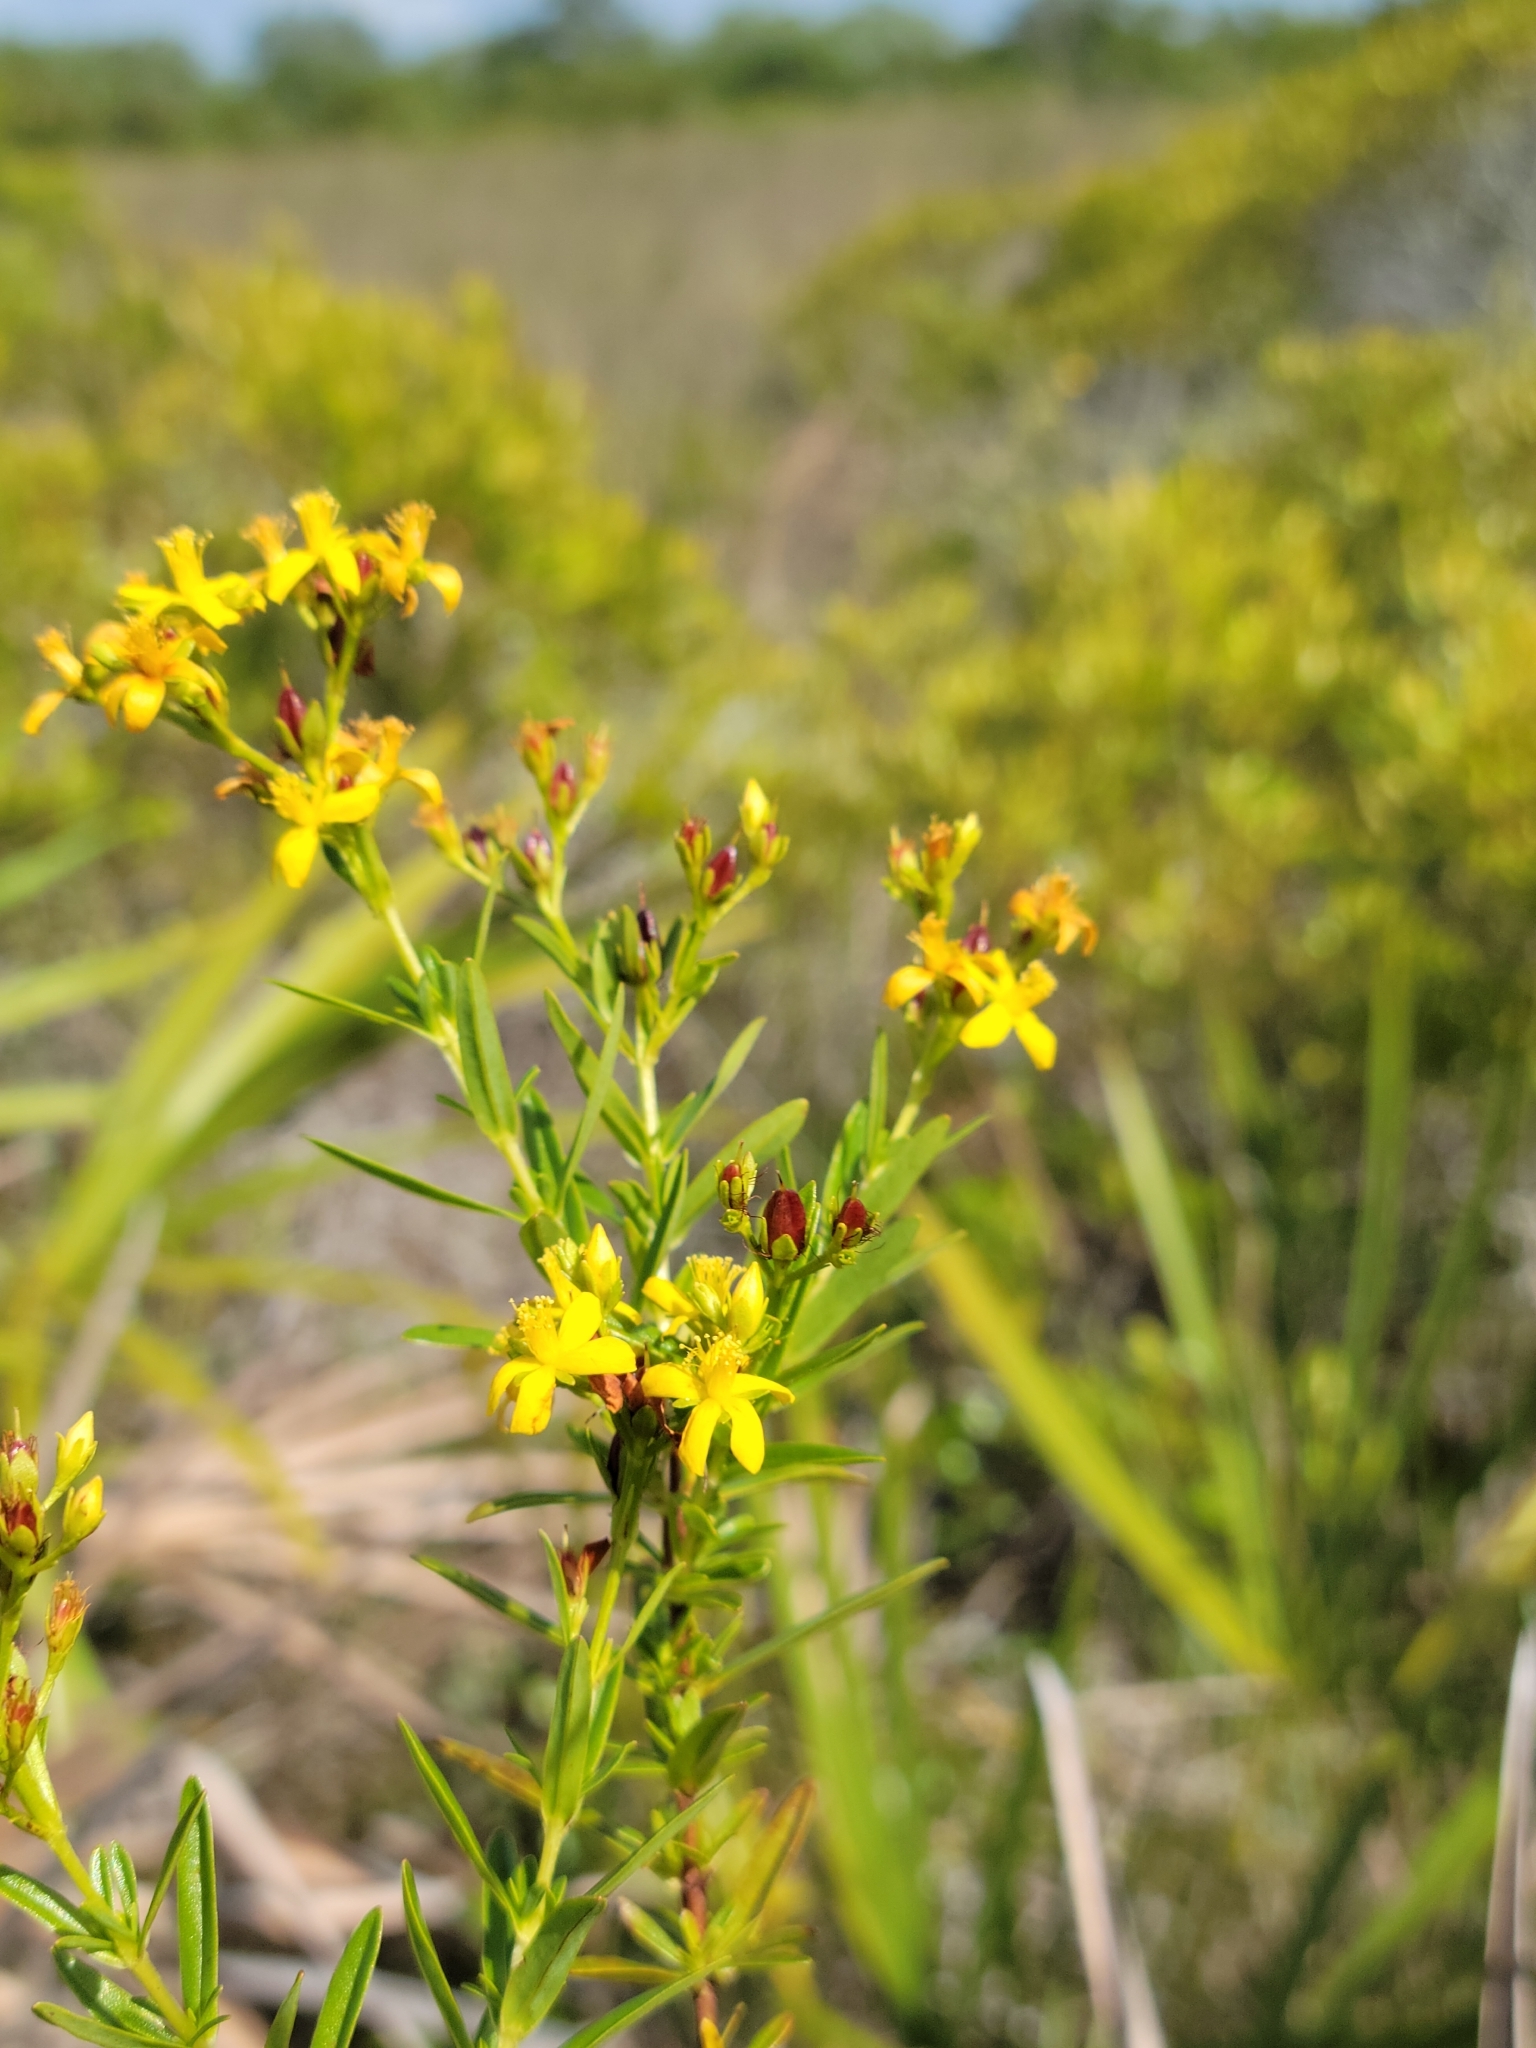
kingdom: Plantae
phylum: Tracheophyta
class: Magnoliopsida
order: Malpighiales
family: Hypericaceae
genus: Hypericum
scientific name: Hypericum cistifolium
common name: Round-pod st. john's-wort
